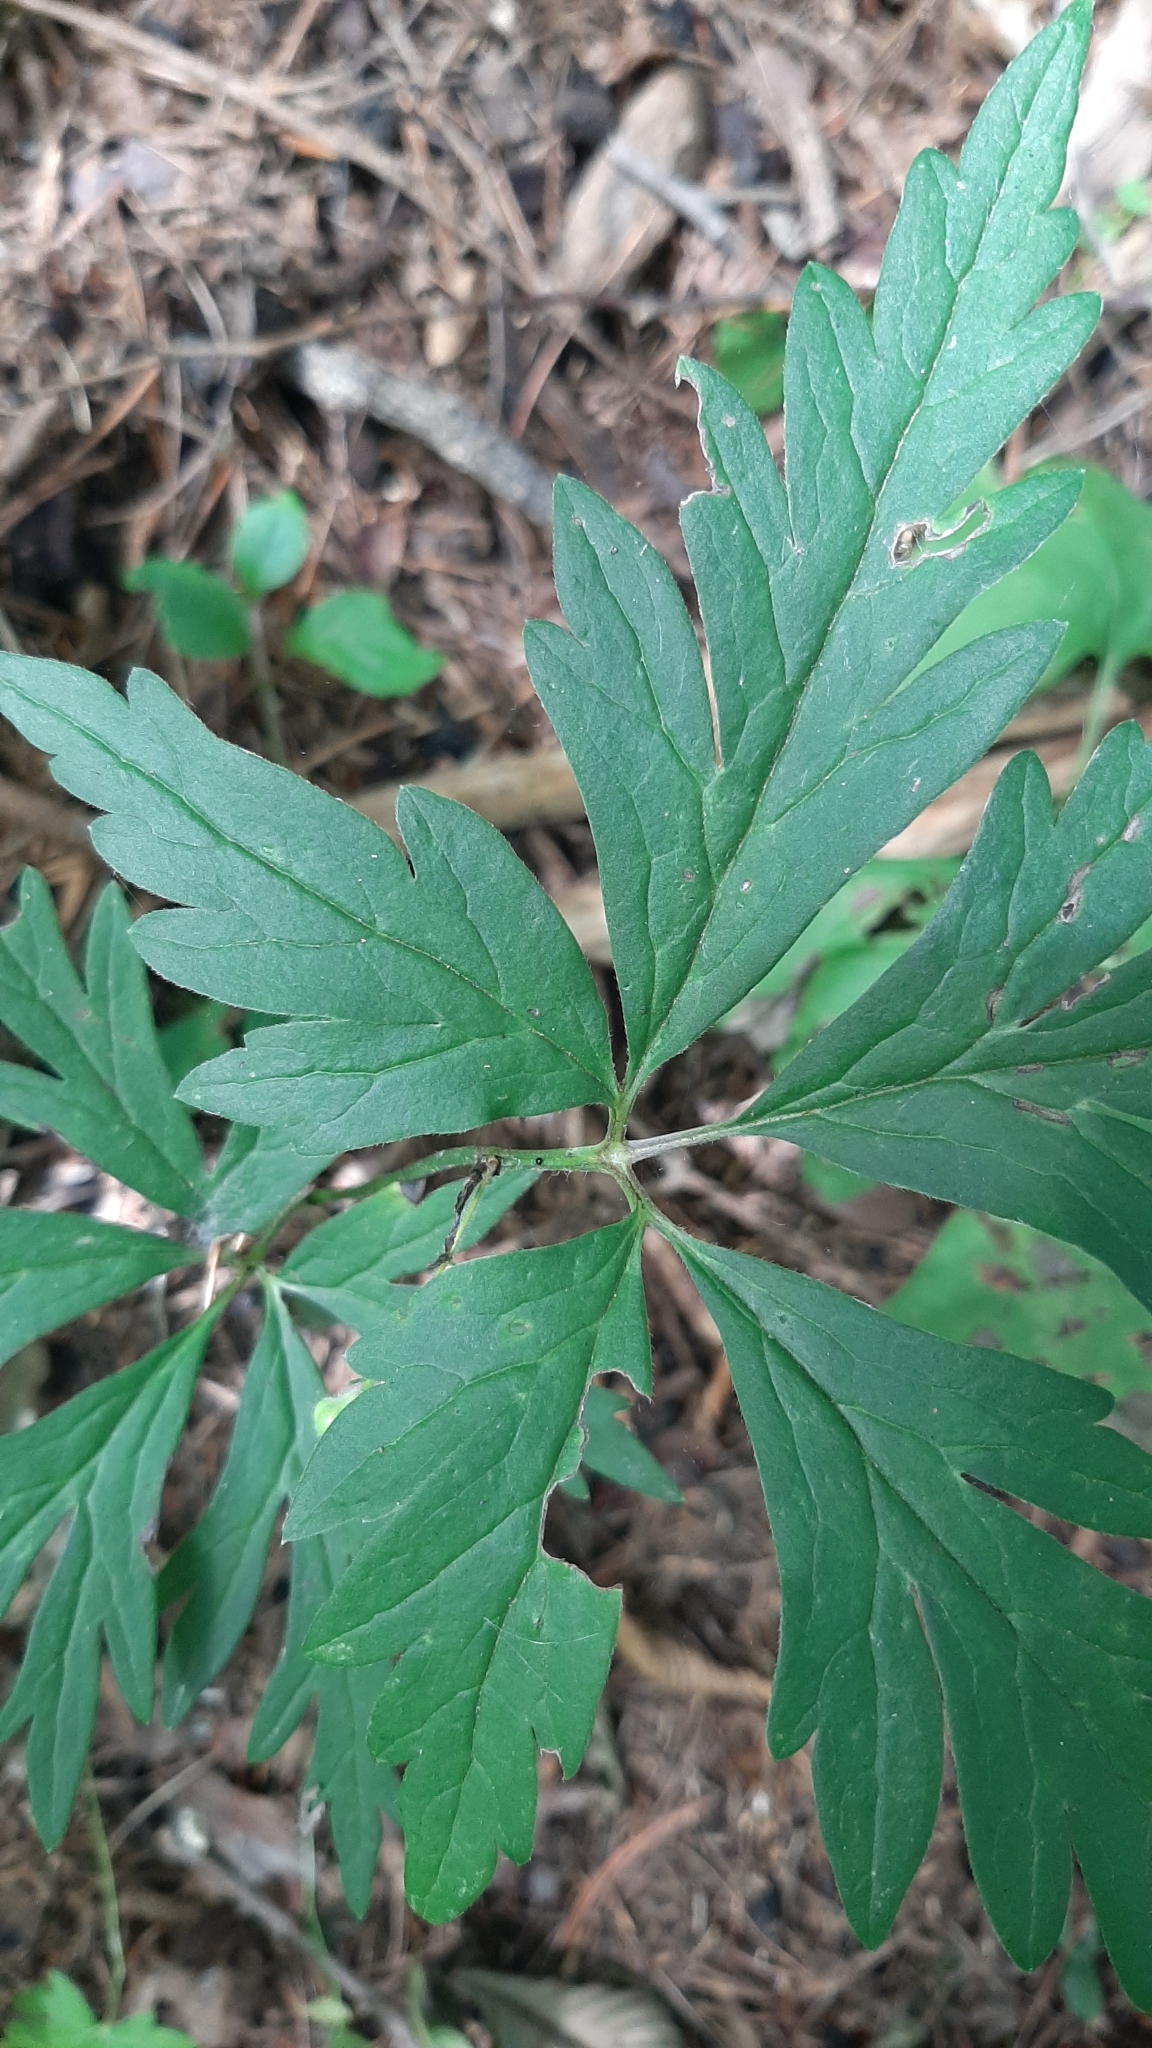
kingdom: Plantae
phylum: Tracheophyta
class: Magnoliopsida
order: Ranunculales
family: Ranunculaceae
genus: Aconitum
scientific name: Aconitum stoloniferum
